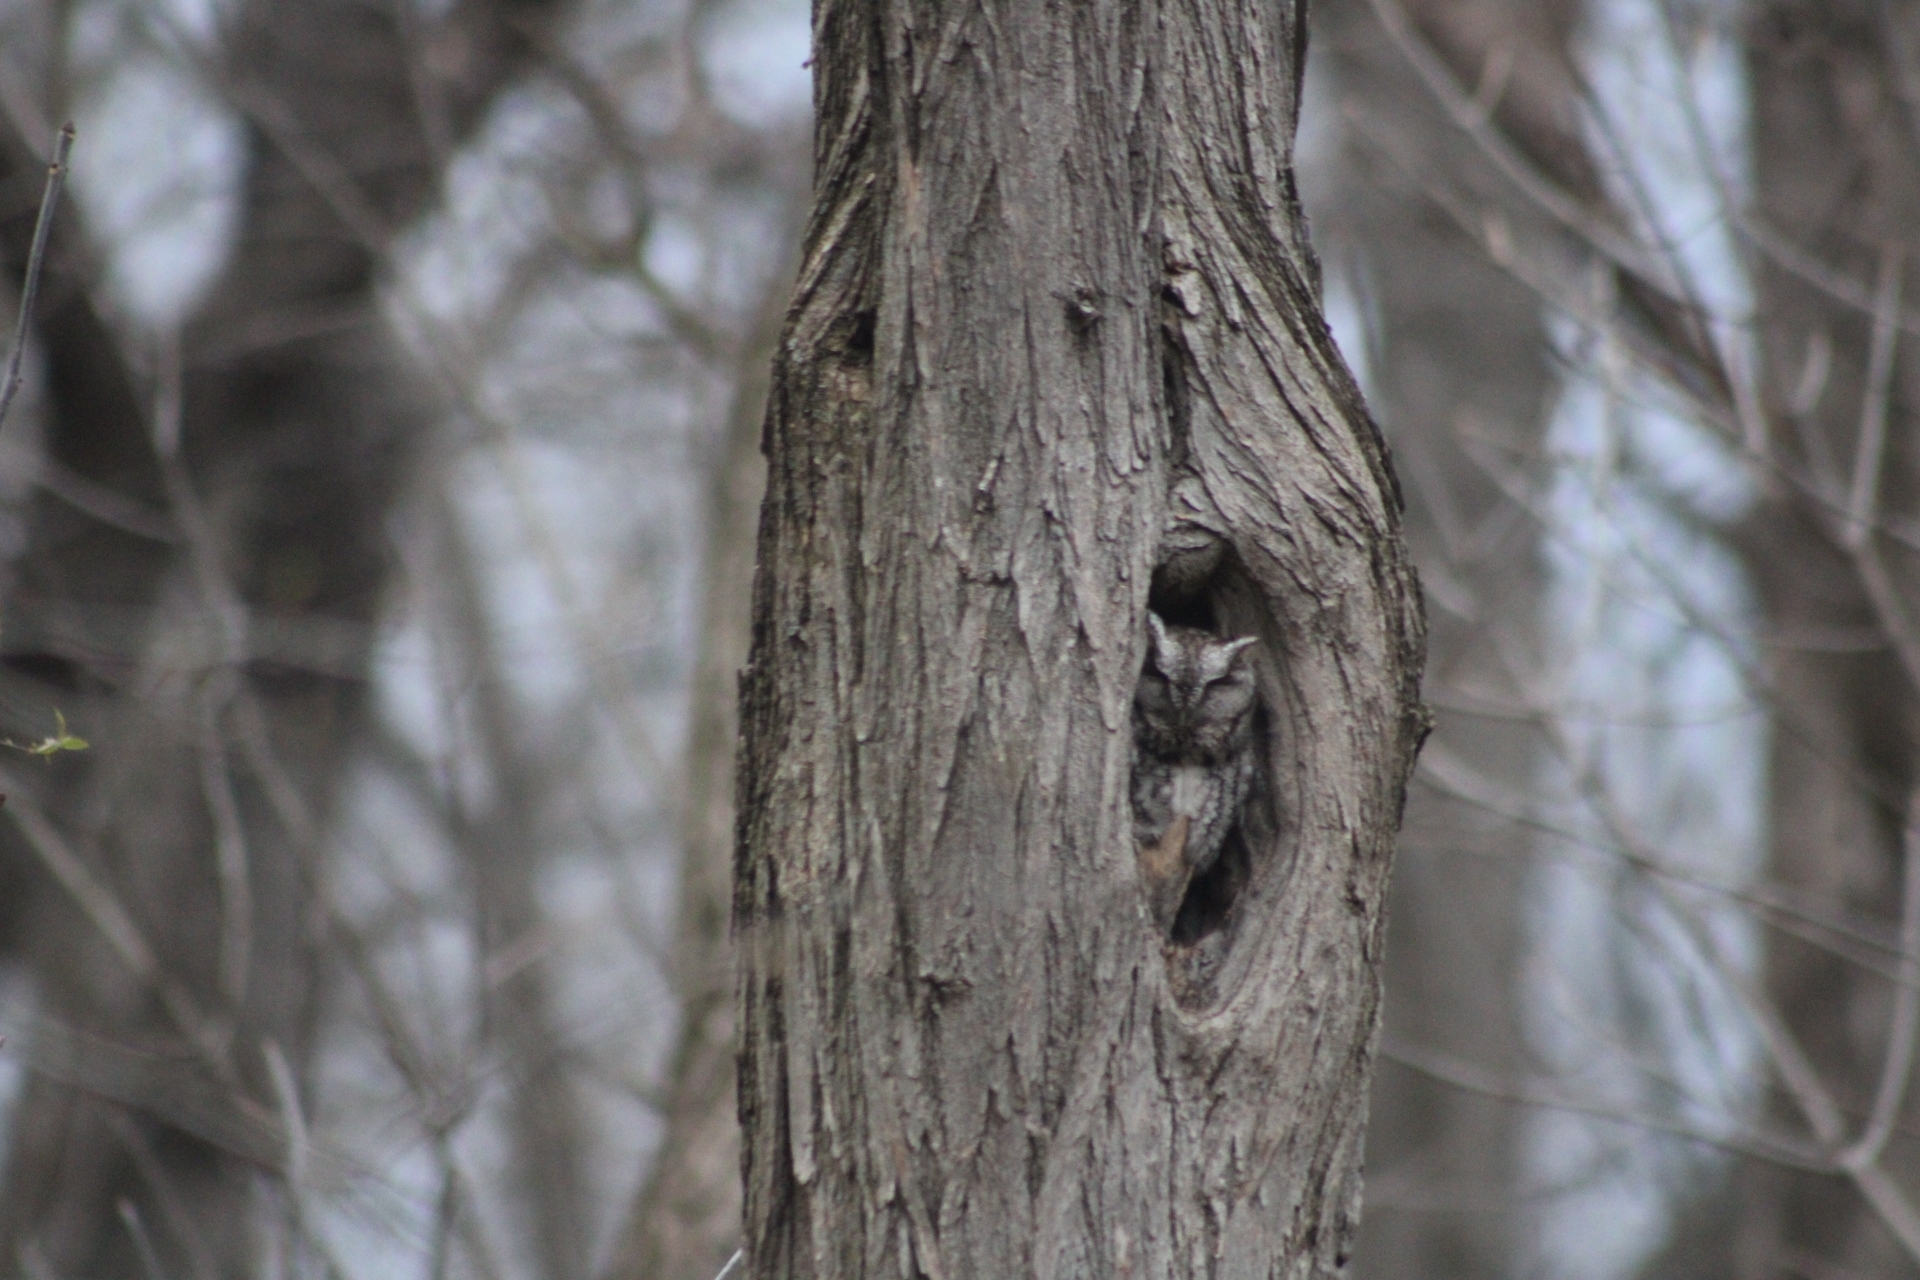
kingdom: Animalia
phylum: Chordata
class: Aves
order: Strigiformes
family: Strigidae
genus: Megascops
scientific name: Megascops asio
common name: Eastern screech-owl
